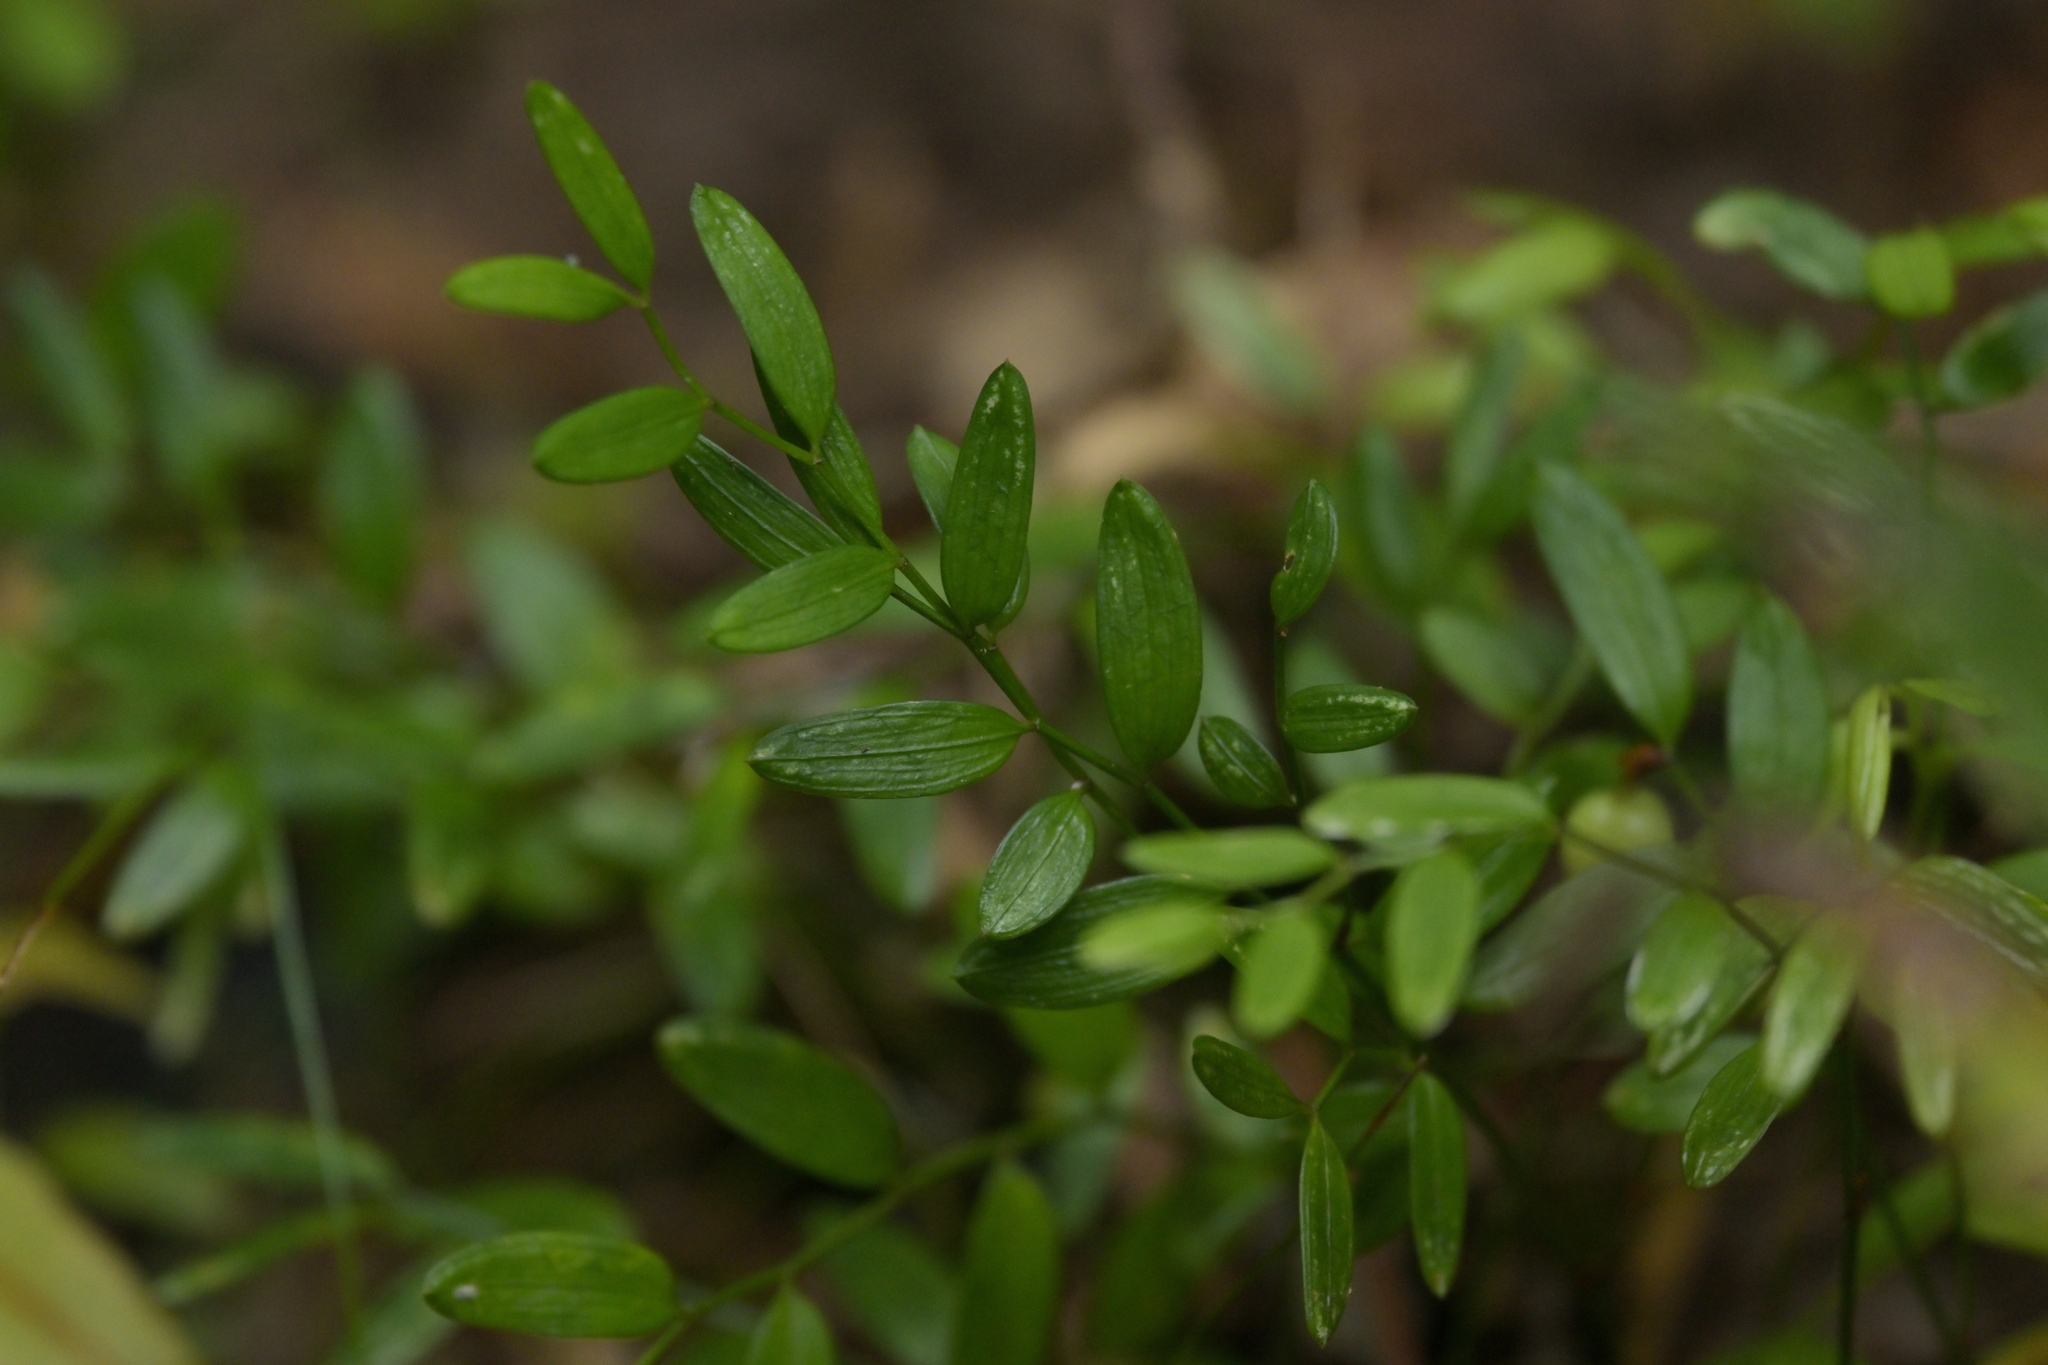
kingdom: Plantae
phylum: Tracheophyta
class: Liliopsida
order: Liliales
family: Alstroemeriaceae
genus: Luzuriaga
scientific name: Luzuriaga parviflora
